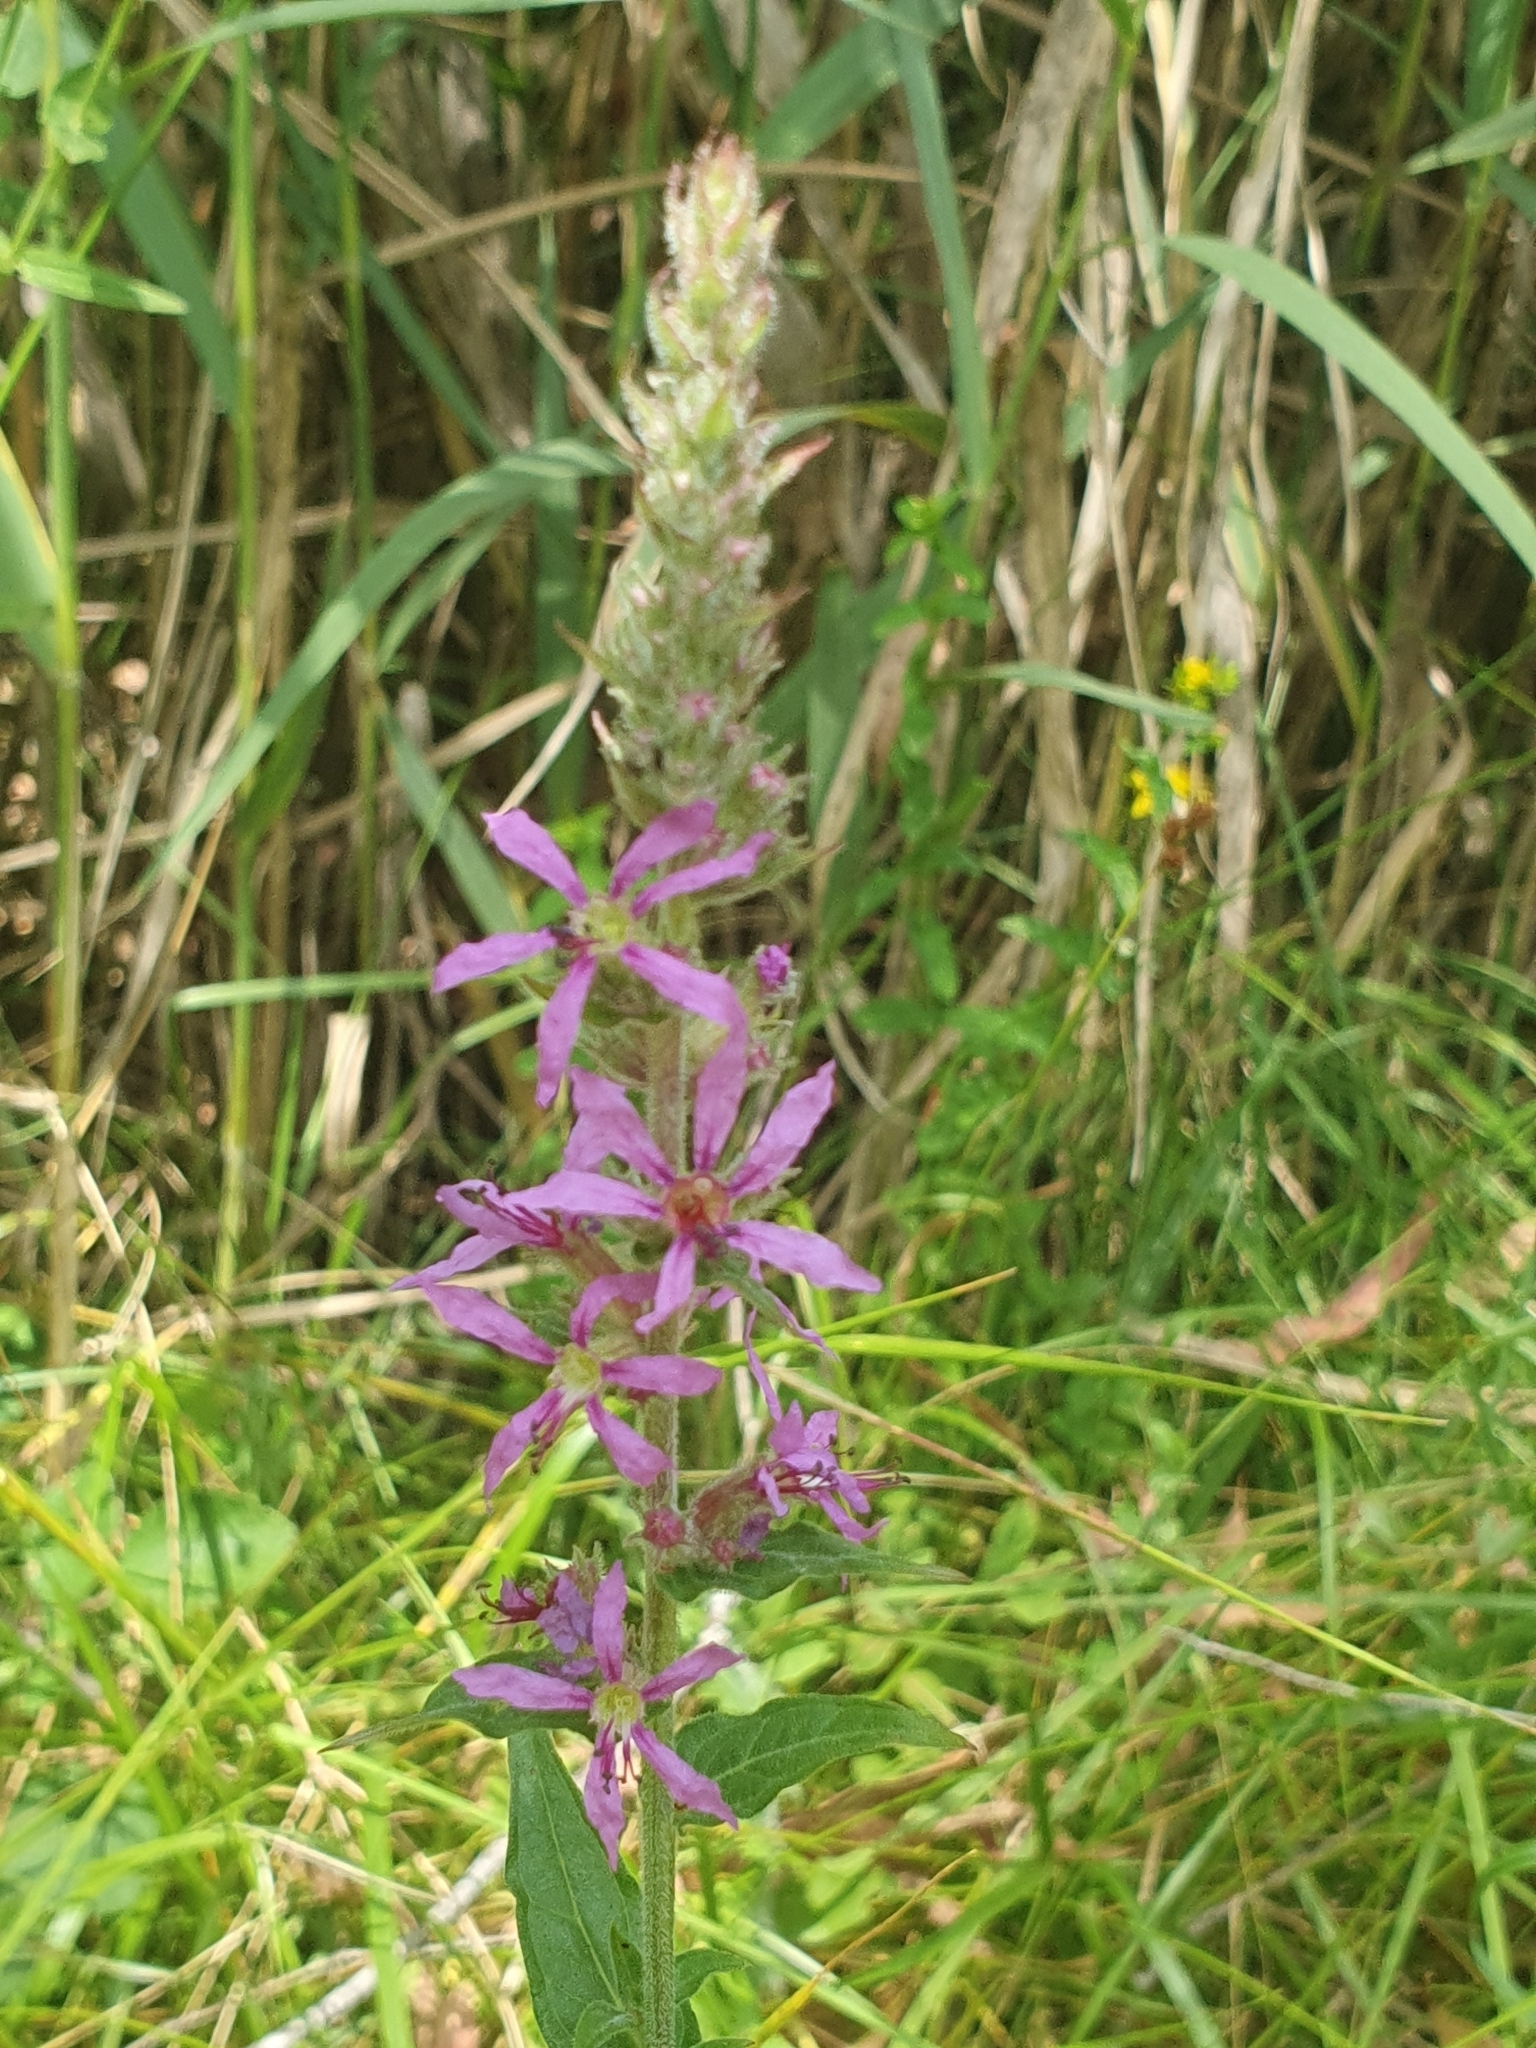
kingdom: Plantae
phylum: Tracheophyta
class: Magnoliopsida
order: Myrtales
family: Lythraceae
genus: Lythrum
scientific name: Lythrum salicaria
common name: Purple loosestrife
